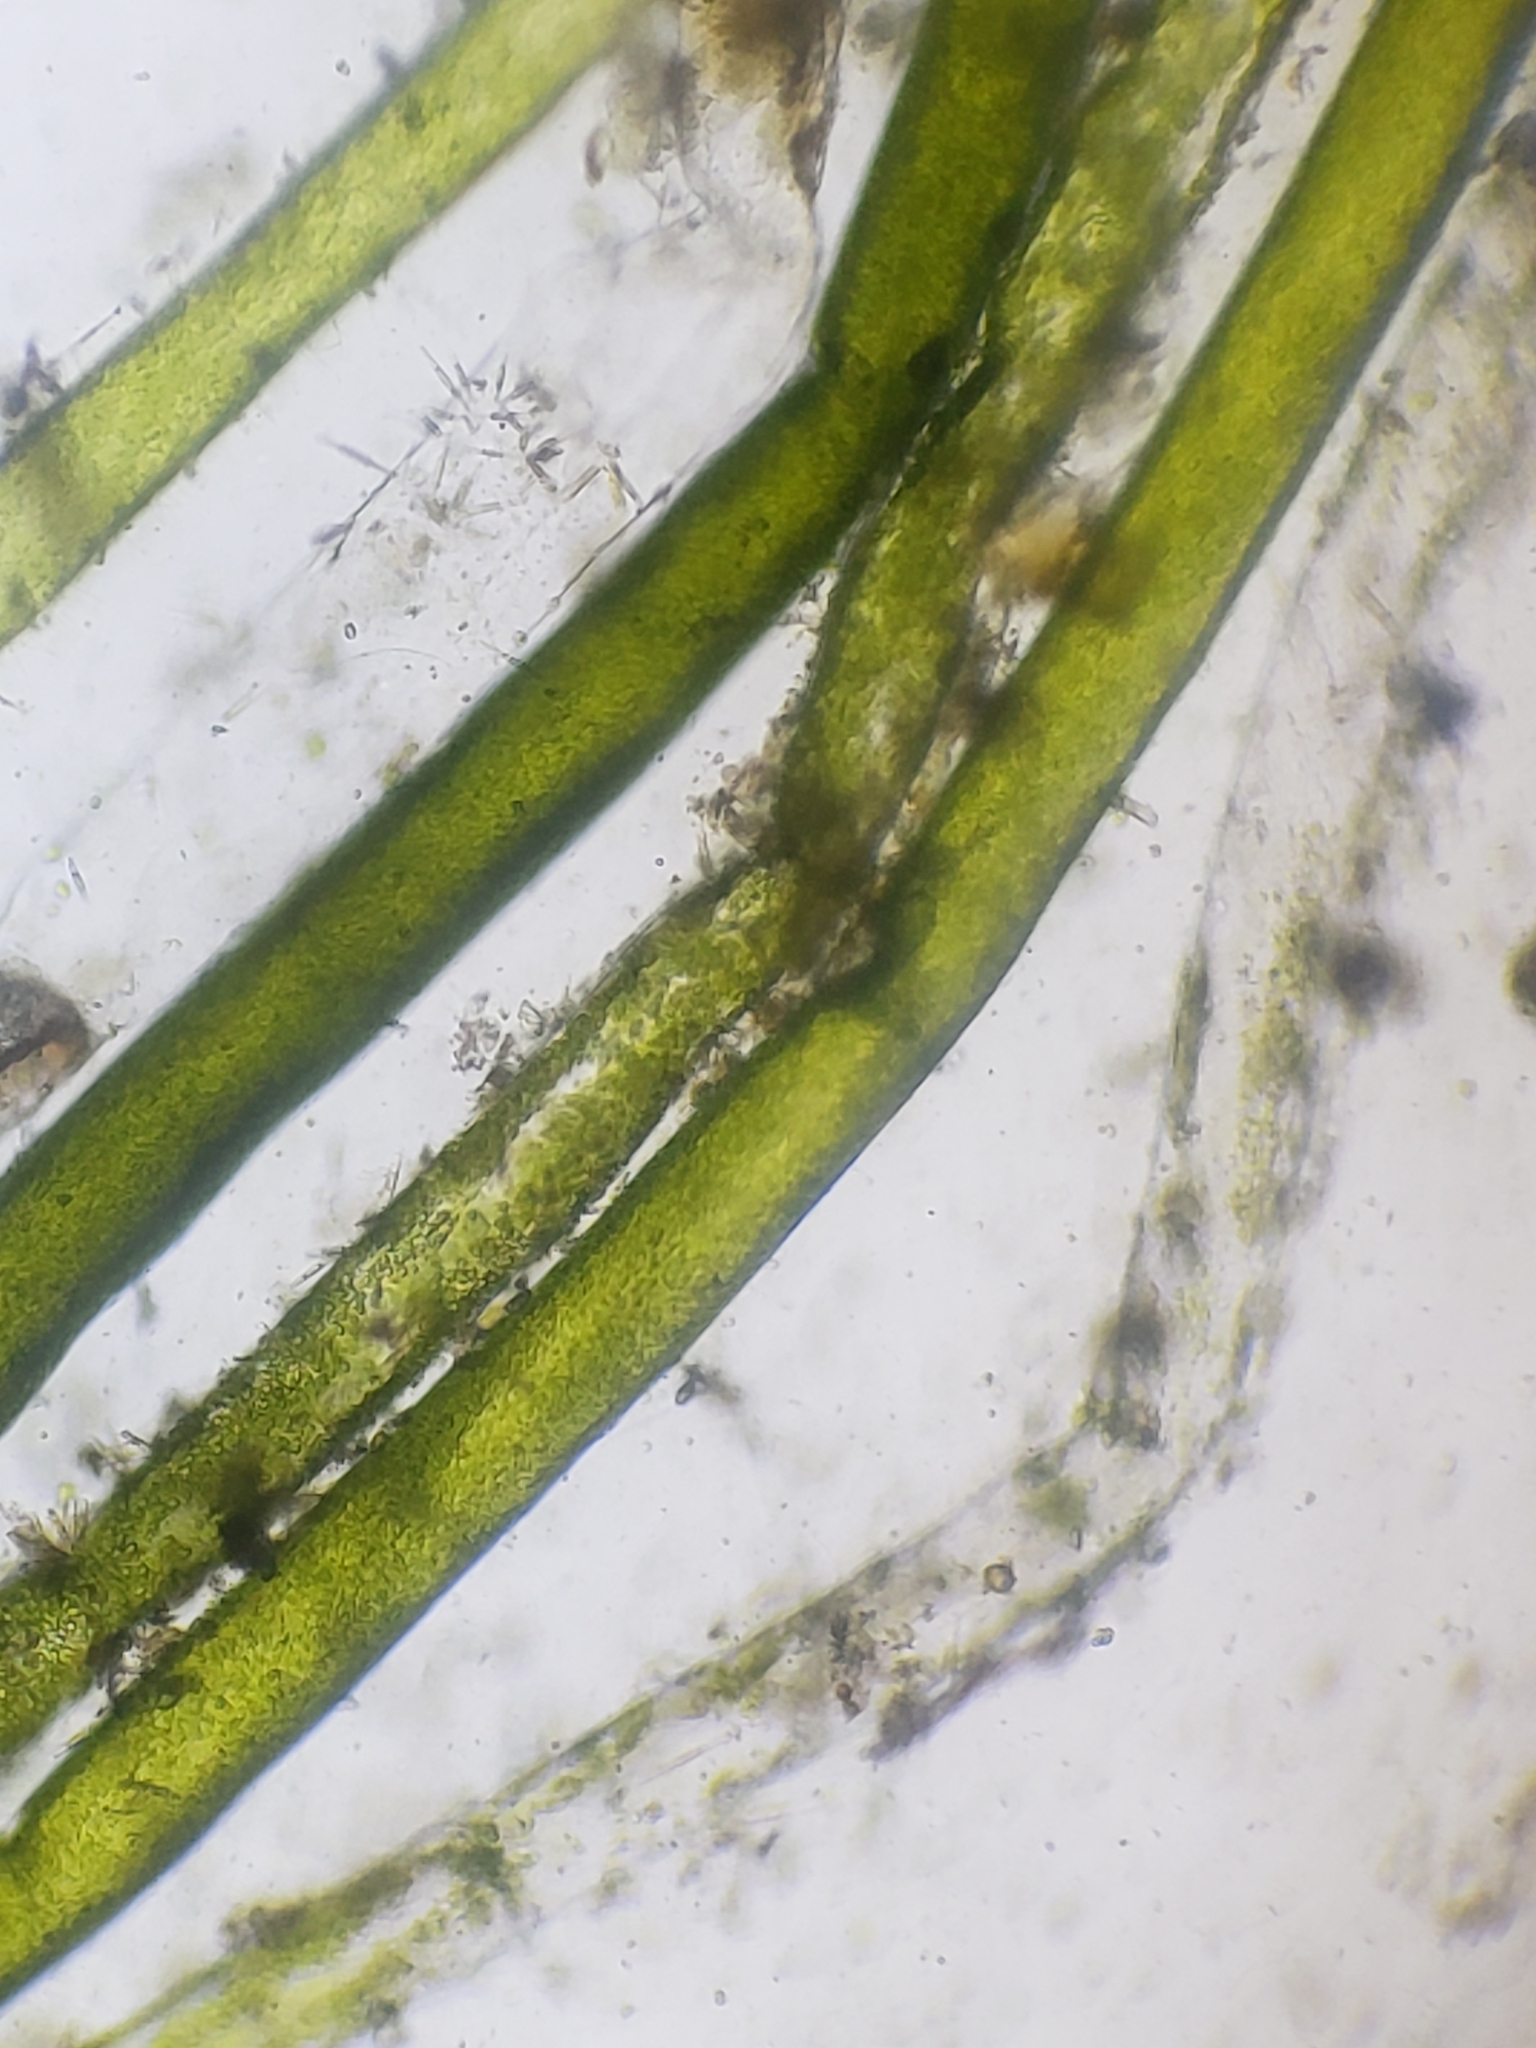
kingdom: Chromista
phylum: Ochrophyta
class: Xanthophyceae
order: Vaucheriales
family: Vaucheriaceae
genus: Vaucheria
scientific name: Vaucheria
